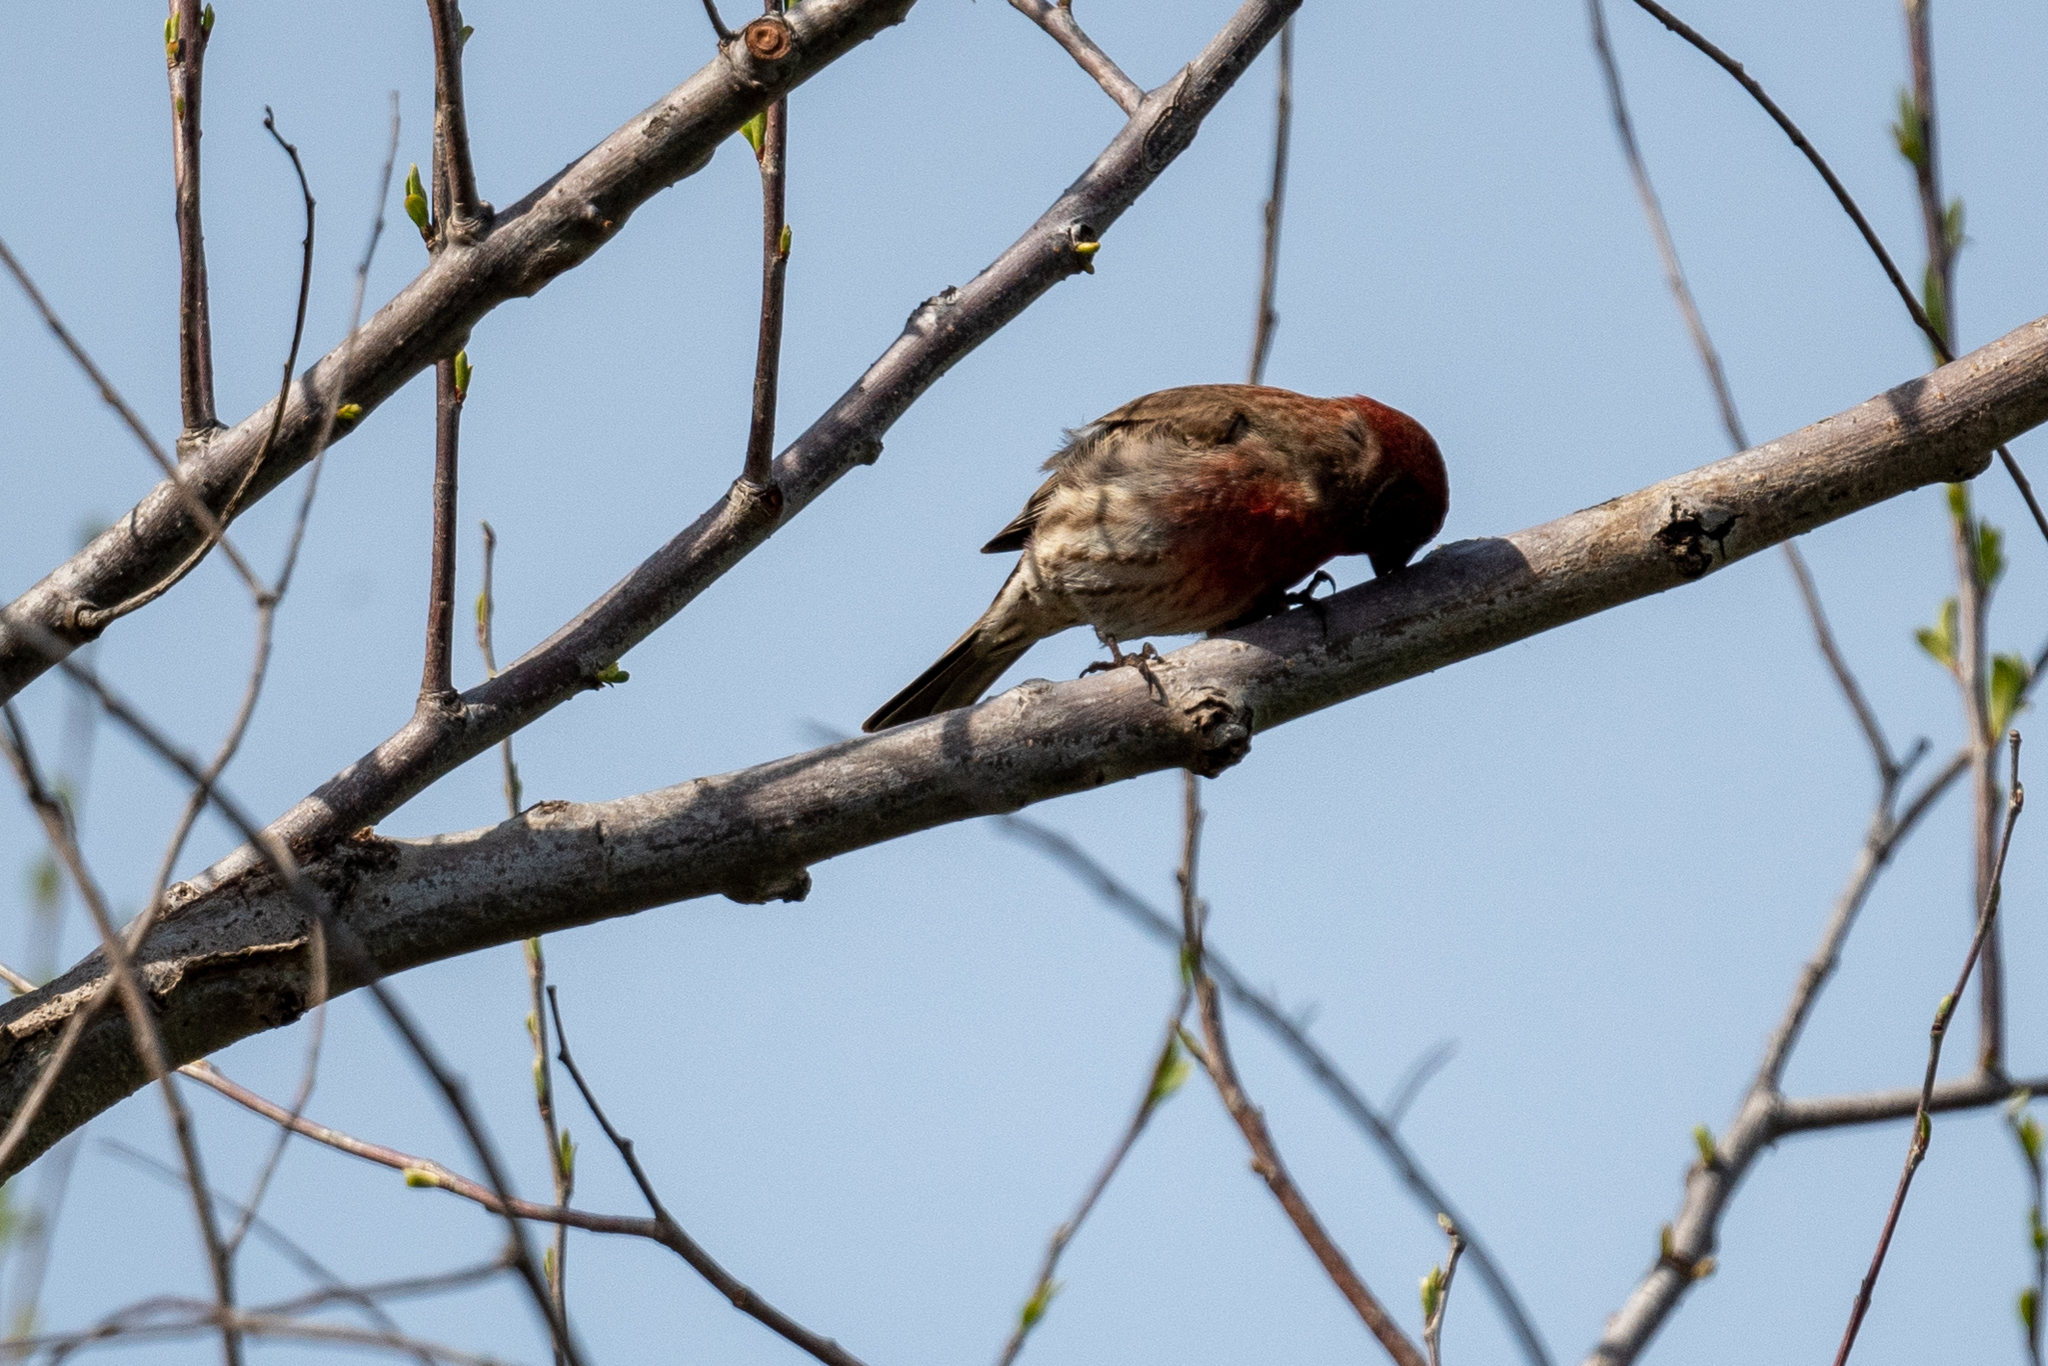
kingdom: Animalia
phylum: Chordata
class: Aves
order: Passeriformes
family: Fringillidae
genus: Haemorhous
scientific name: Haemorhous mexicanus
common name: House finch
